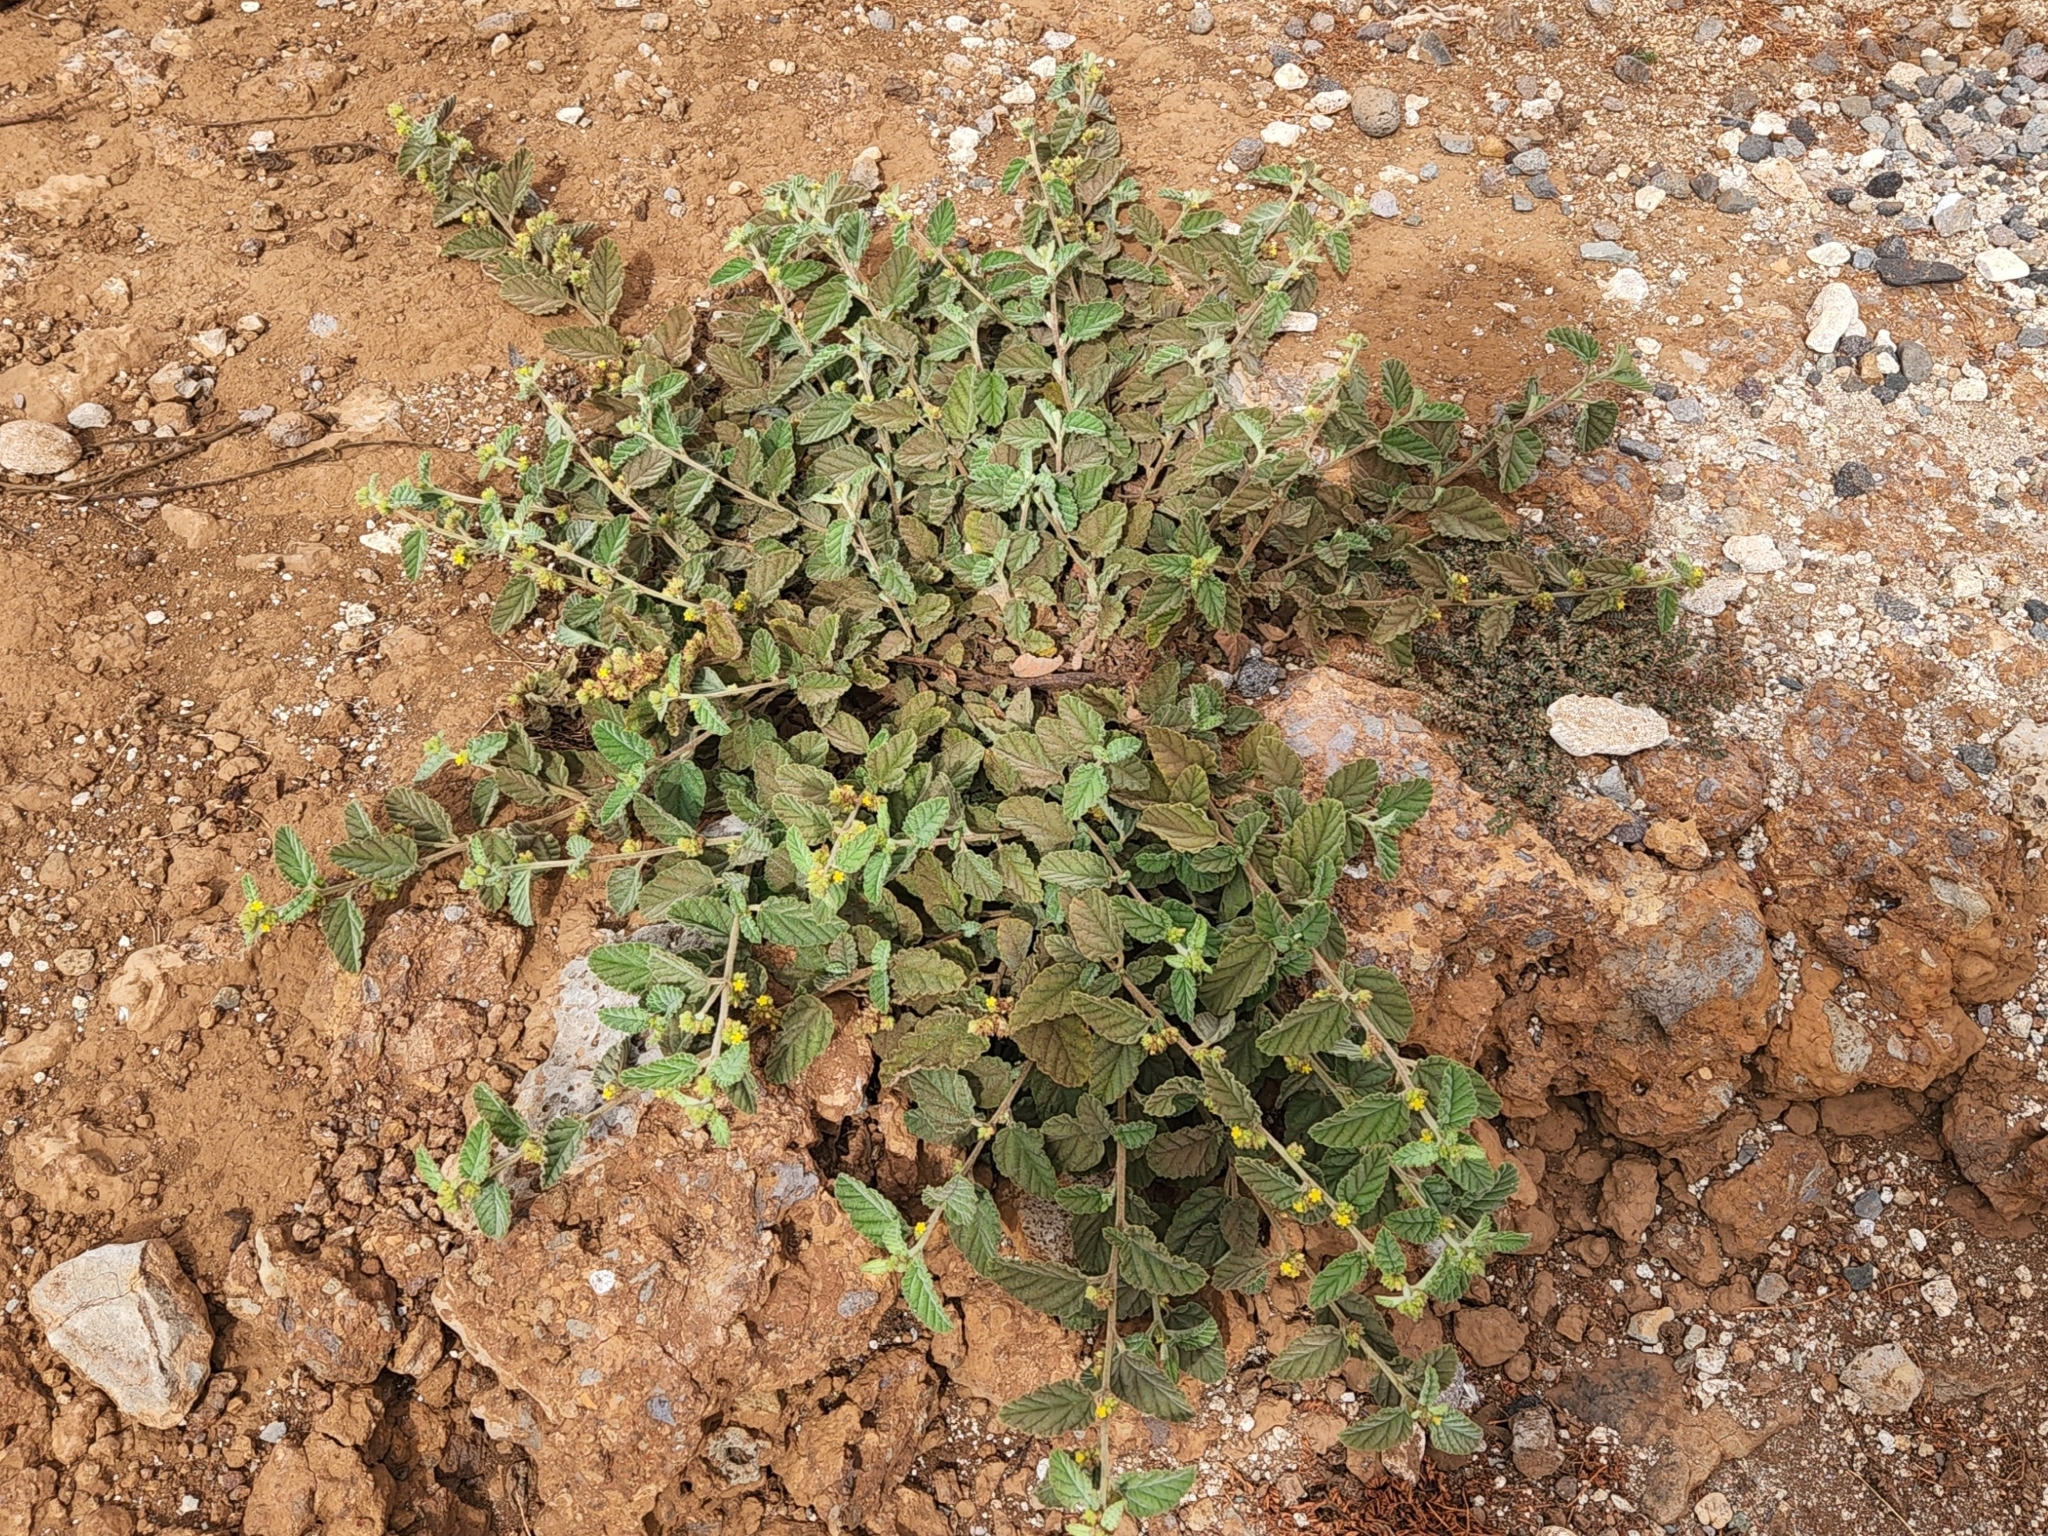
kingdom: Plantae
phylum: Tracheophyta
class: Magnoliopsida
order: Malvales
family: Malvaceae
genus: Waltheria
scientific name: Waltheria indica
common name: Leather-coat
